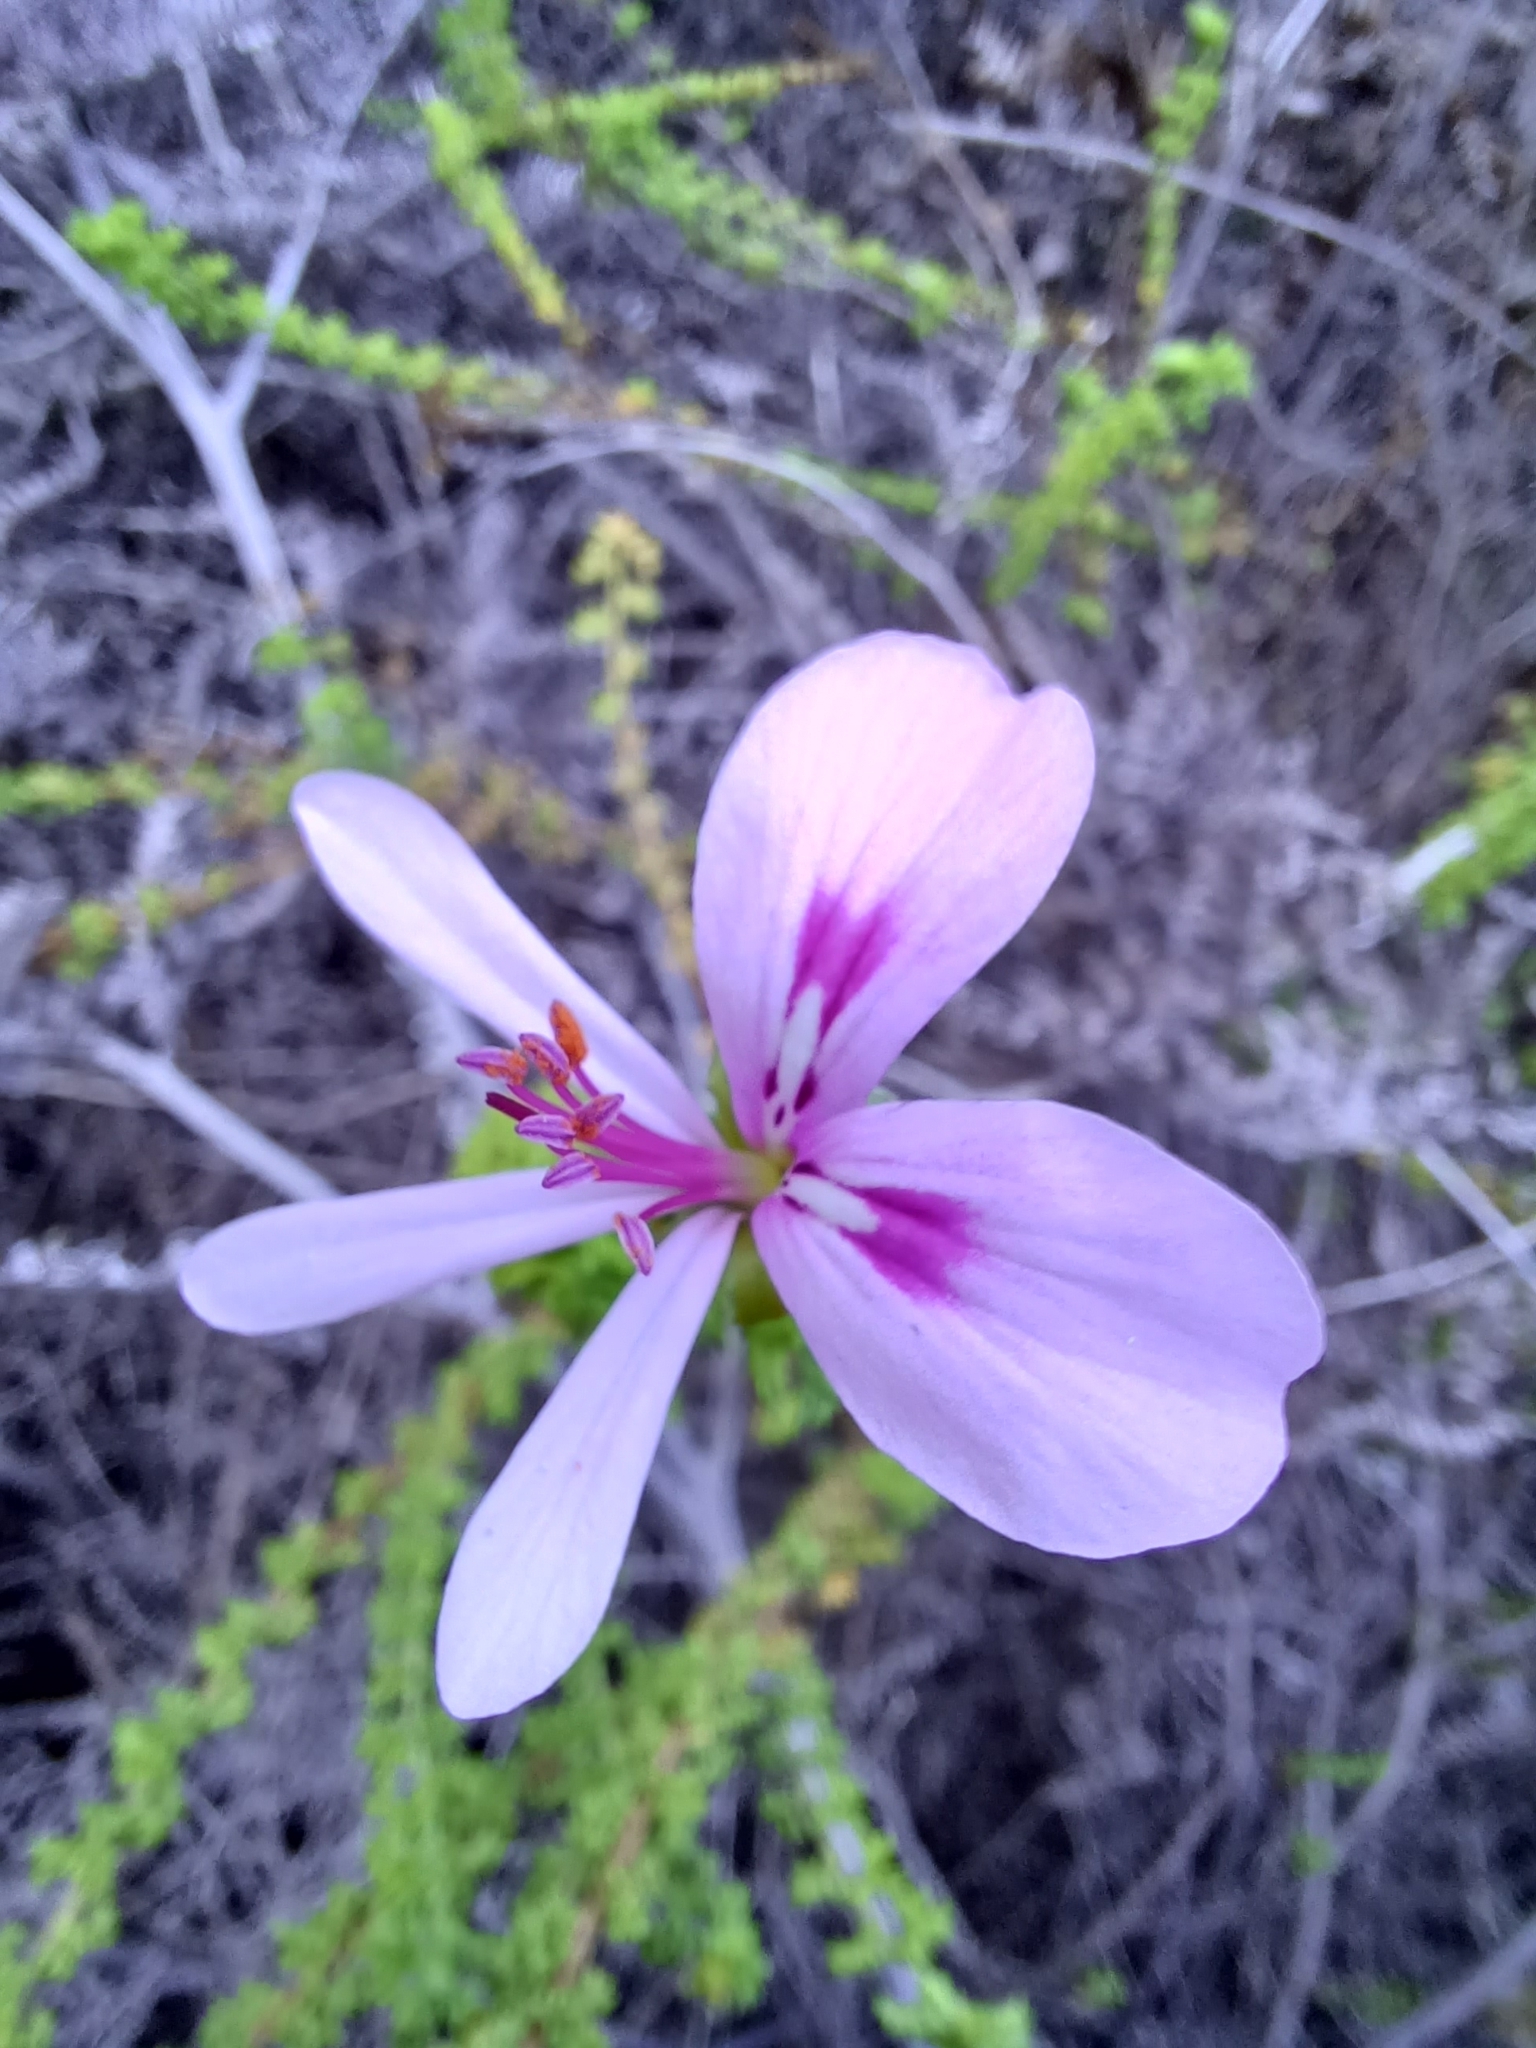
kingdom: Plantae
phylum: Tracheophyta
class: Magnoliopsida
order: Geraniales
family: Geraniaceae
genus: Pelargonium
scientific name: Pelargonium crispum
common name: Crisped-leaf pelargonium
